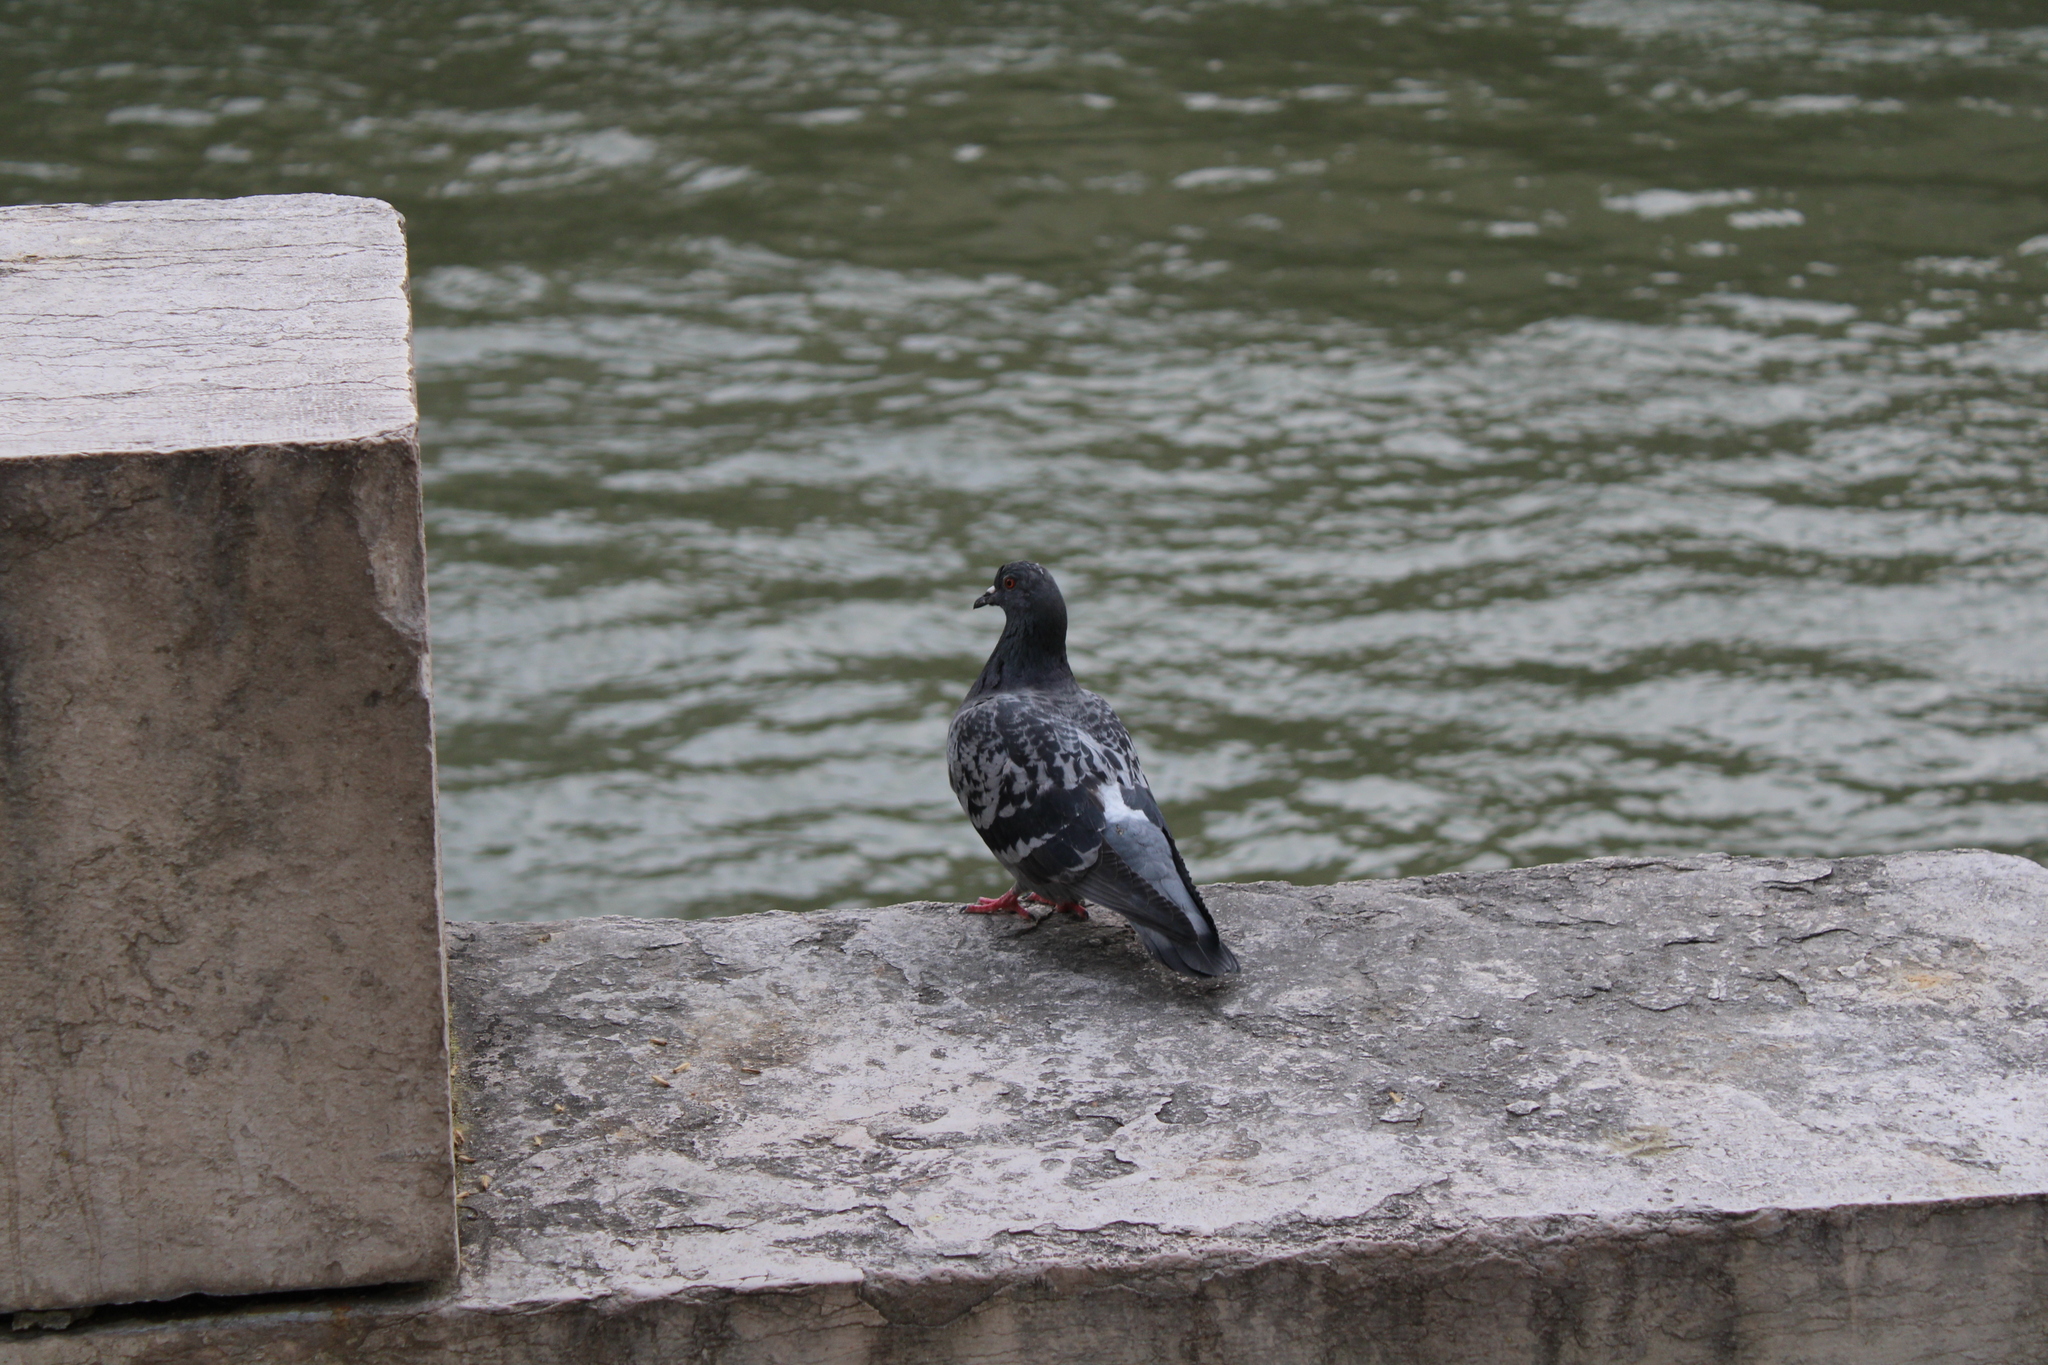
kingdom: Animalia
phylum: Chordata
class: Aves
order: Columbiformes
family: Columbidae
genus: Columba
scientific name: Columba livia
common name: Rock pigeon
